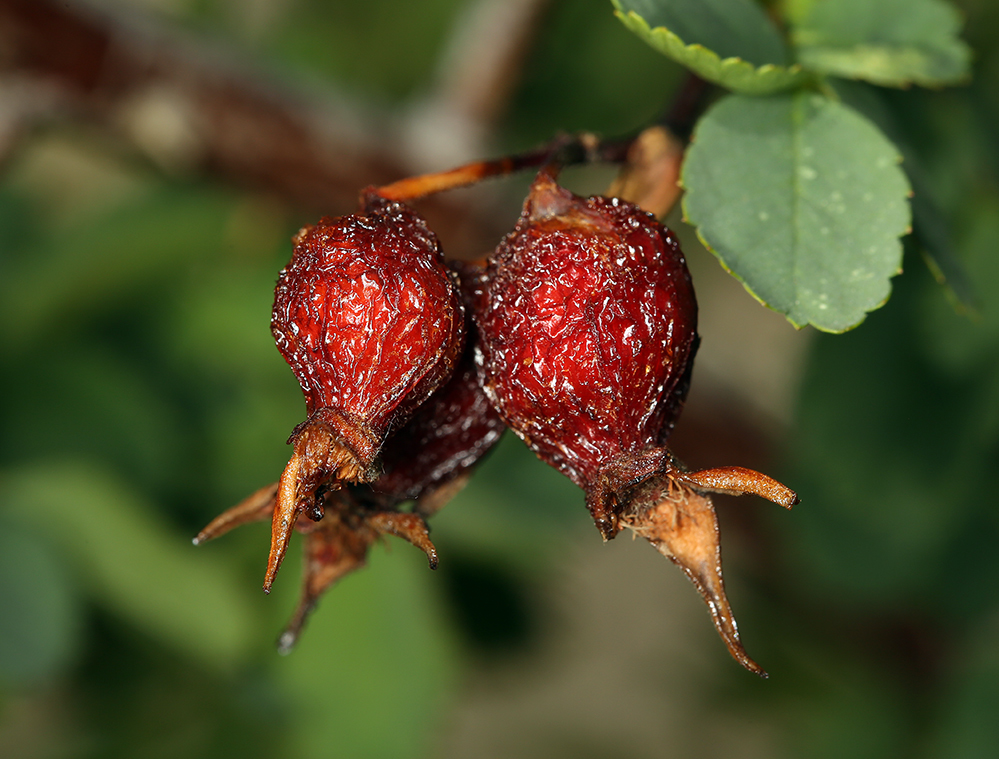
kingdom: Plantae
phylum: Tracheophyta
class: Magnoliopsida
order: Rosales
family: Rosaceae
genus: Rosa
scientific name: Rosa woodsii
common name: Woods's rose
